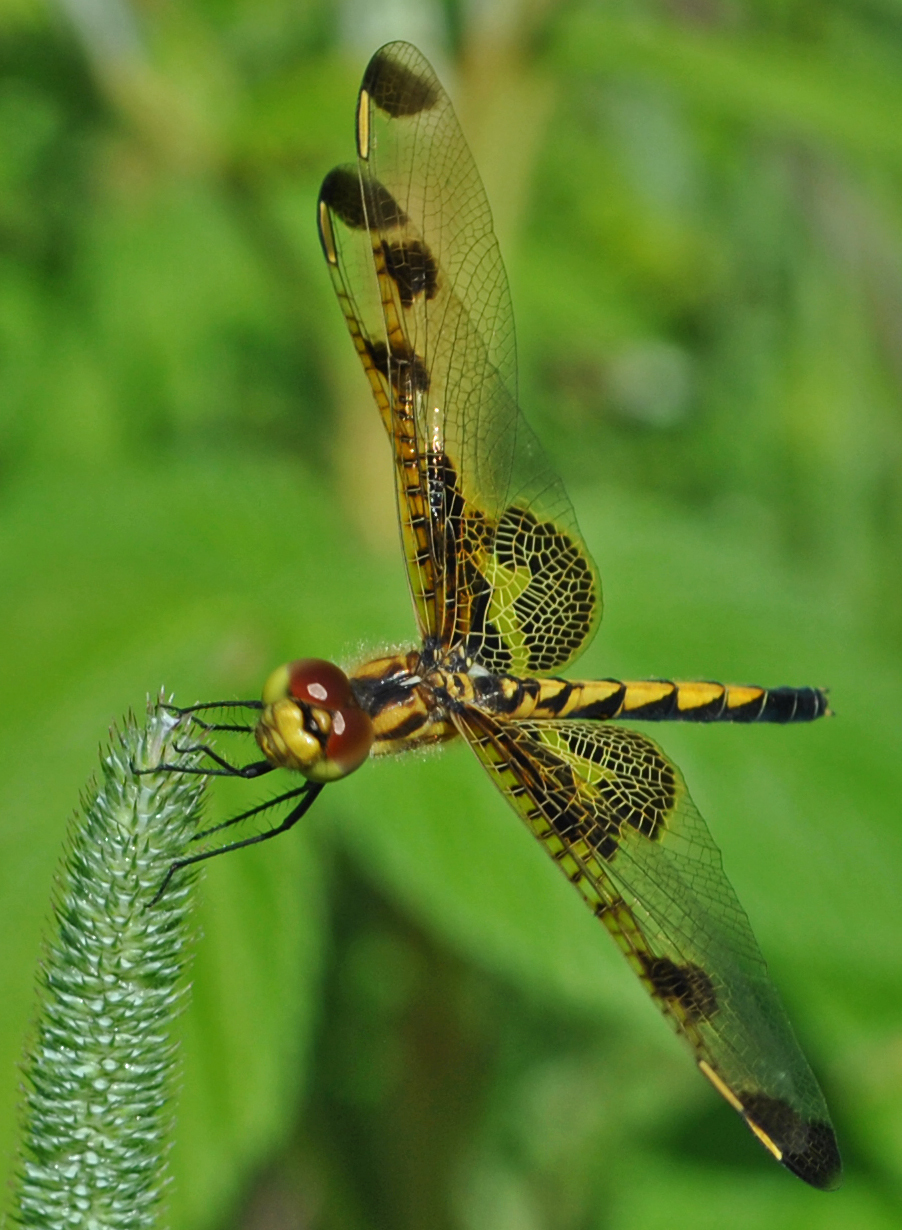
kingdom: Animalia
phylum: Arthropoda
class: Insecta
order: Odonata
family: Libellulidae
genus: Celithemis
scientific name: Celithemis elisa
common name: Calico pennant
